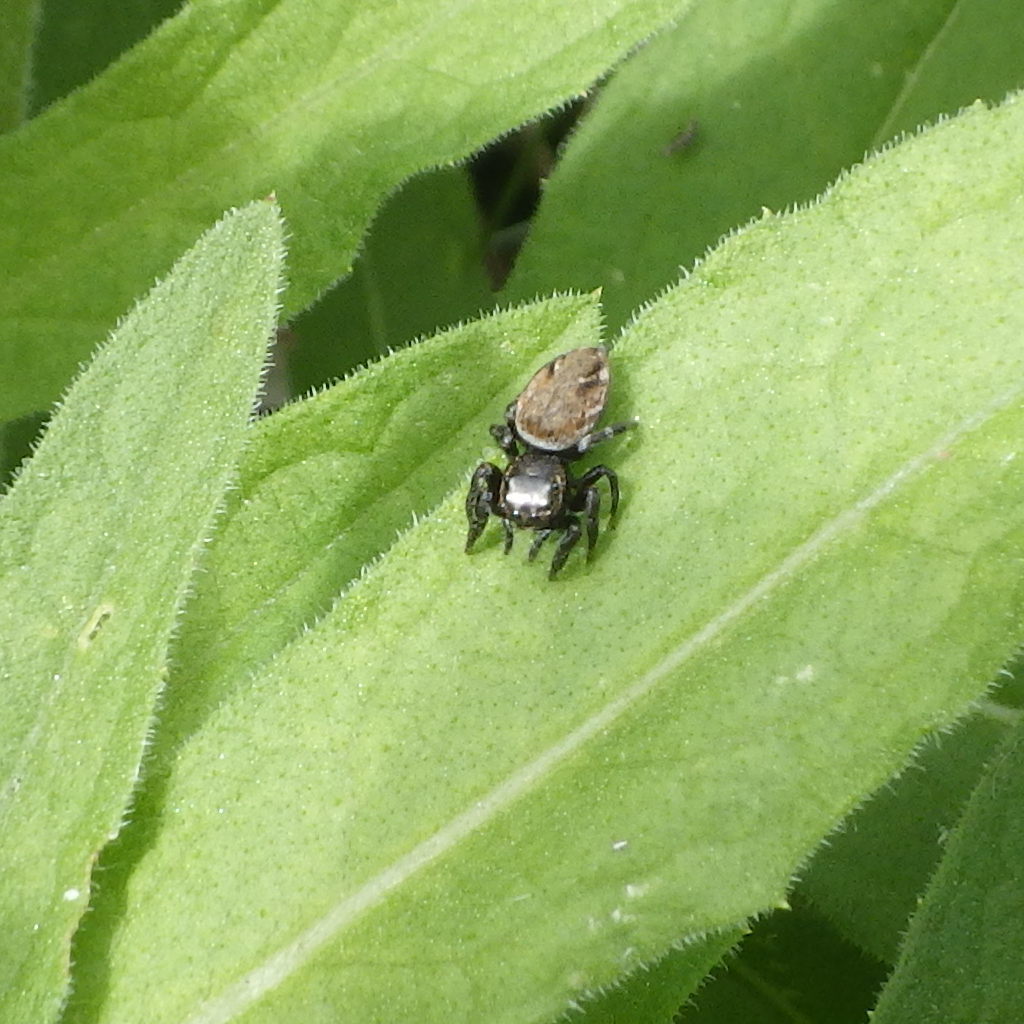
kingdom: Animalia
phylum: Arthropoda
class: Arachnida
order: Araneae
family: Salticidae
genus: Evarcha
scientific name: Evarcha hoyi
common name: Hoy's jumping spider
